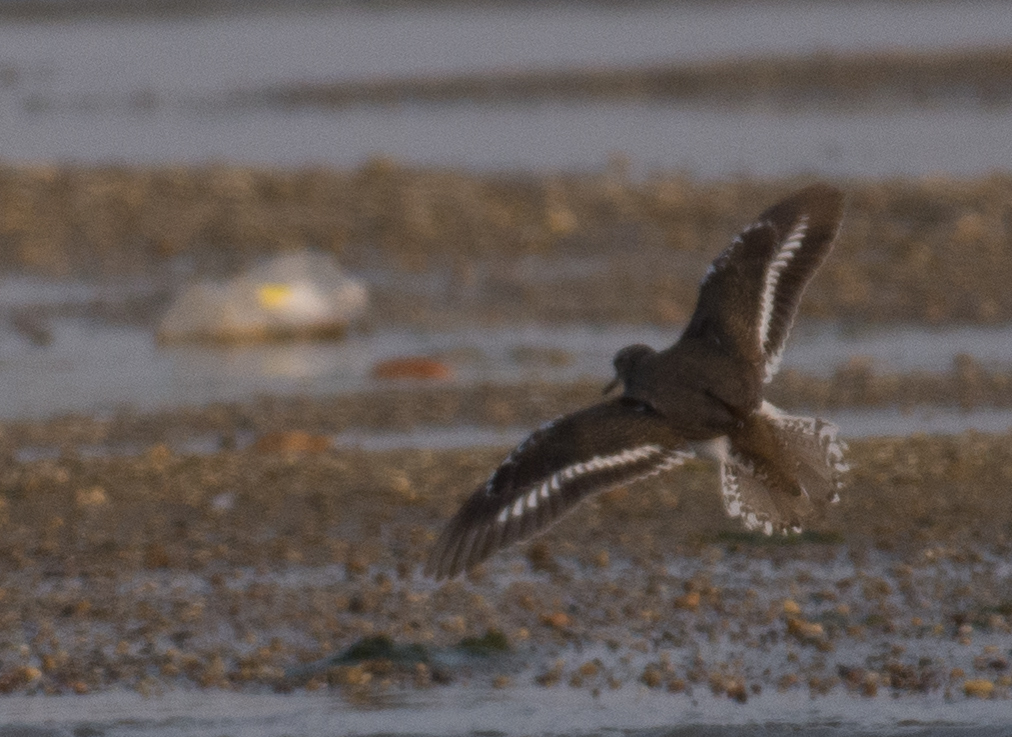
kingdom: Animalia
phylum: Chordata
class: Aves
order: Charadriiformes
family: Scolopacidae
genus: Actitis
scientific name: Actitis hypoleucos
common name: Common sandpiper
